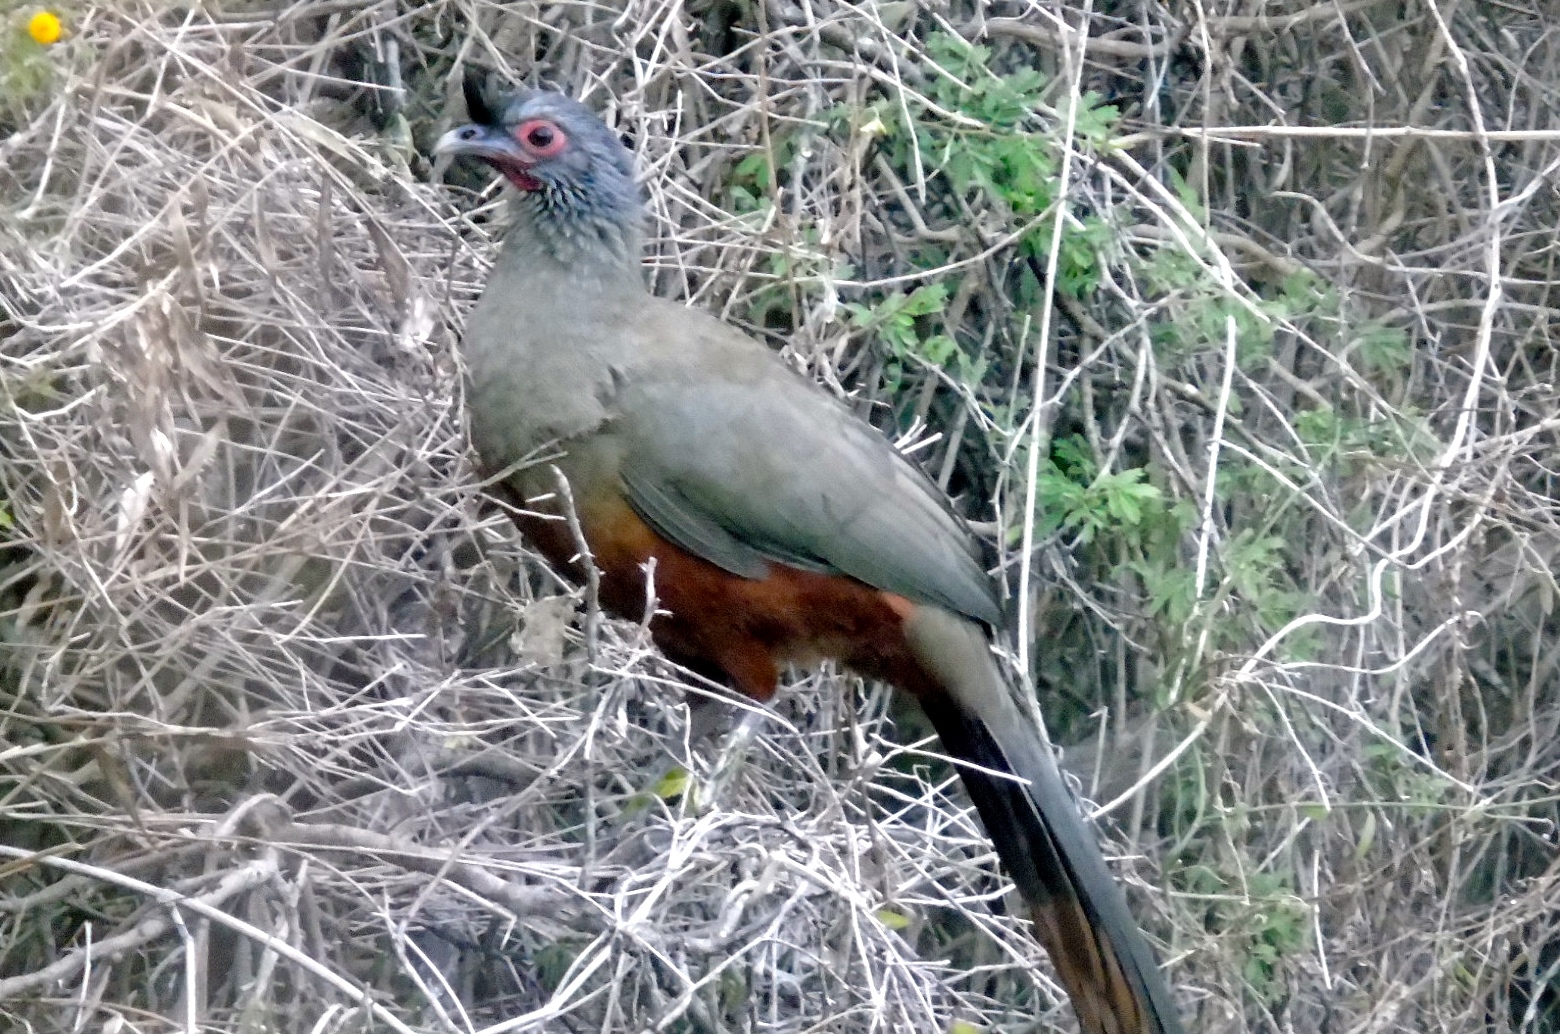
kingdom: Animalia
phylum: Chordata
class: Aves
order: Galliformes
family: Cracidae
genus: Ortalis
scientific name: Ortalis wagleri
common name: Rufous-bellied chachalaca
